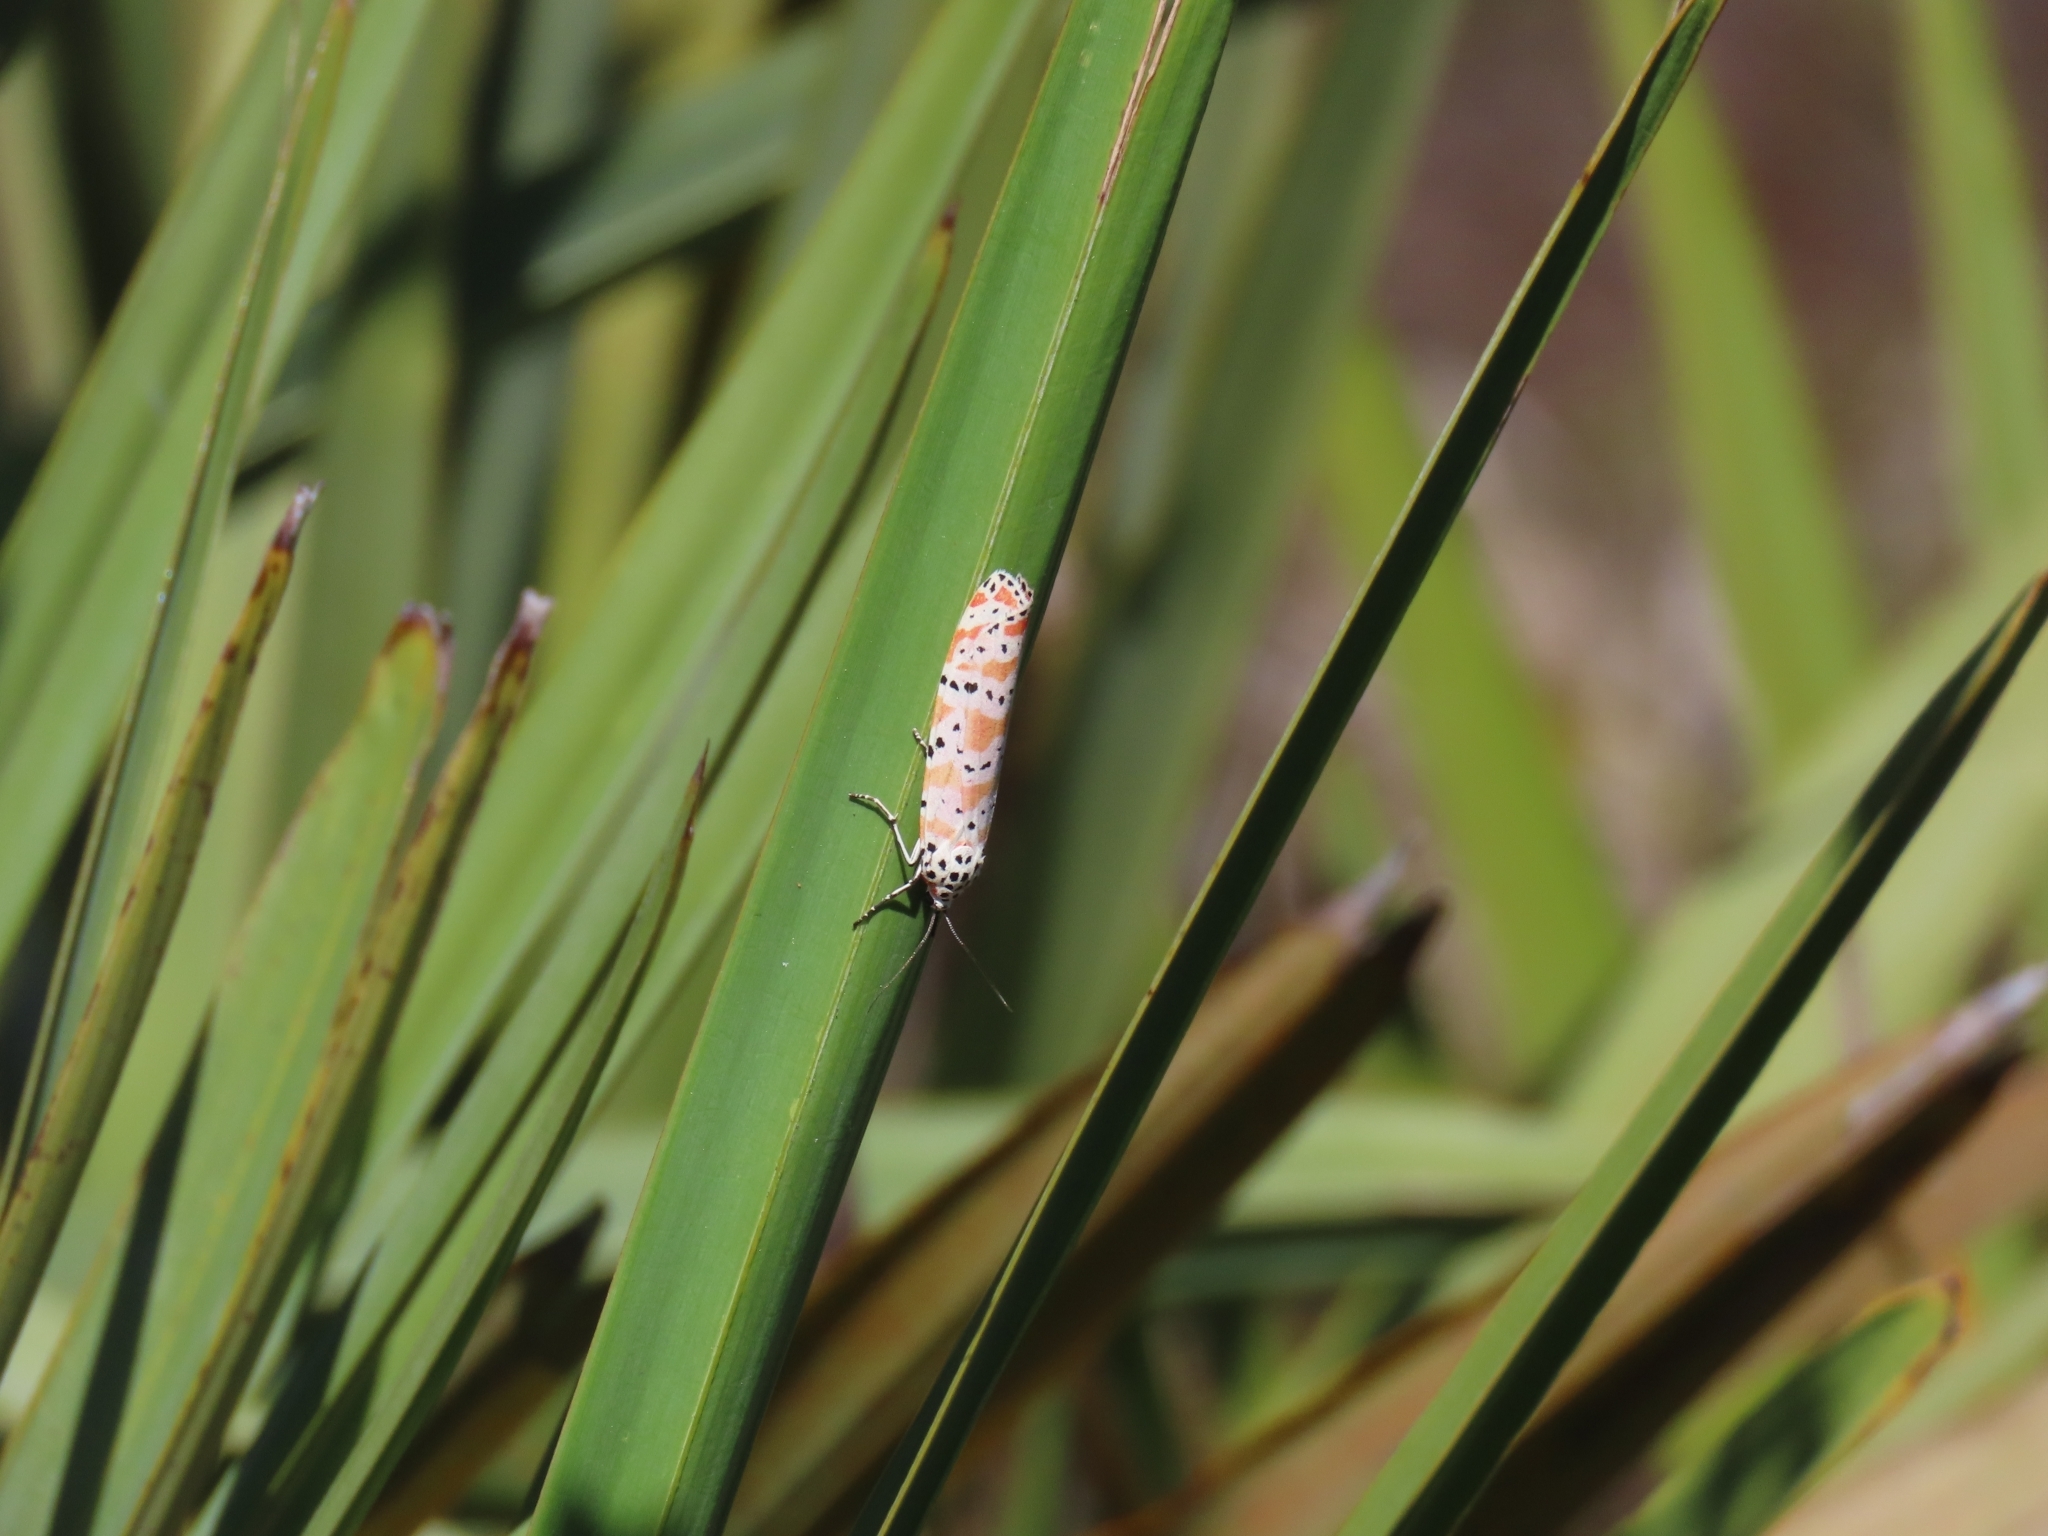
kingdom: Animalia
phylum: Arthropoda
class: Insecta
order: Lepidoptera
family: Erebidae
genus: Utetheisa
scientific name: Utetheisa ornatrix
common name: Beautiful utetheisa
